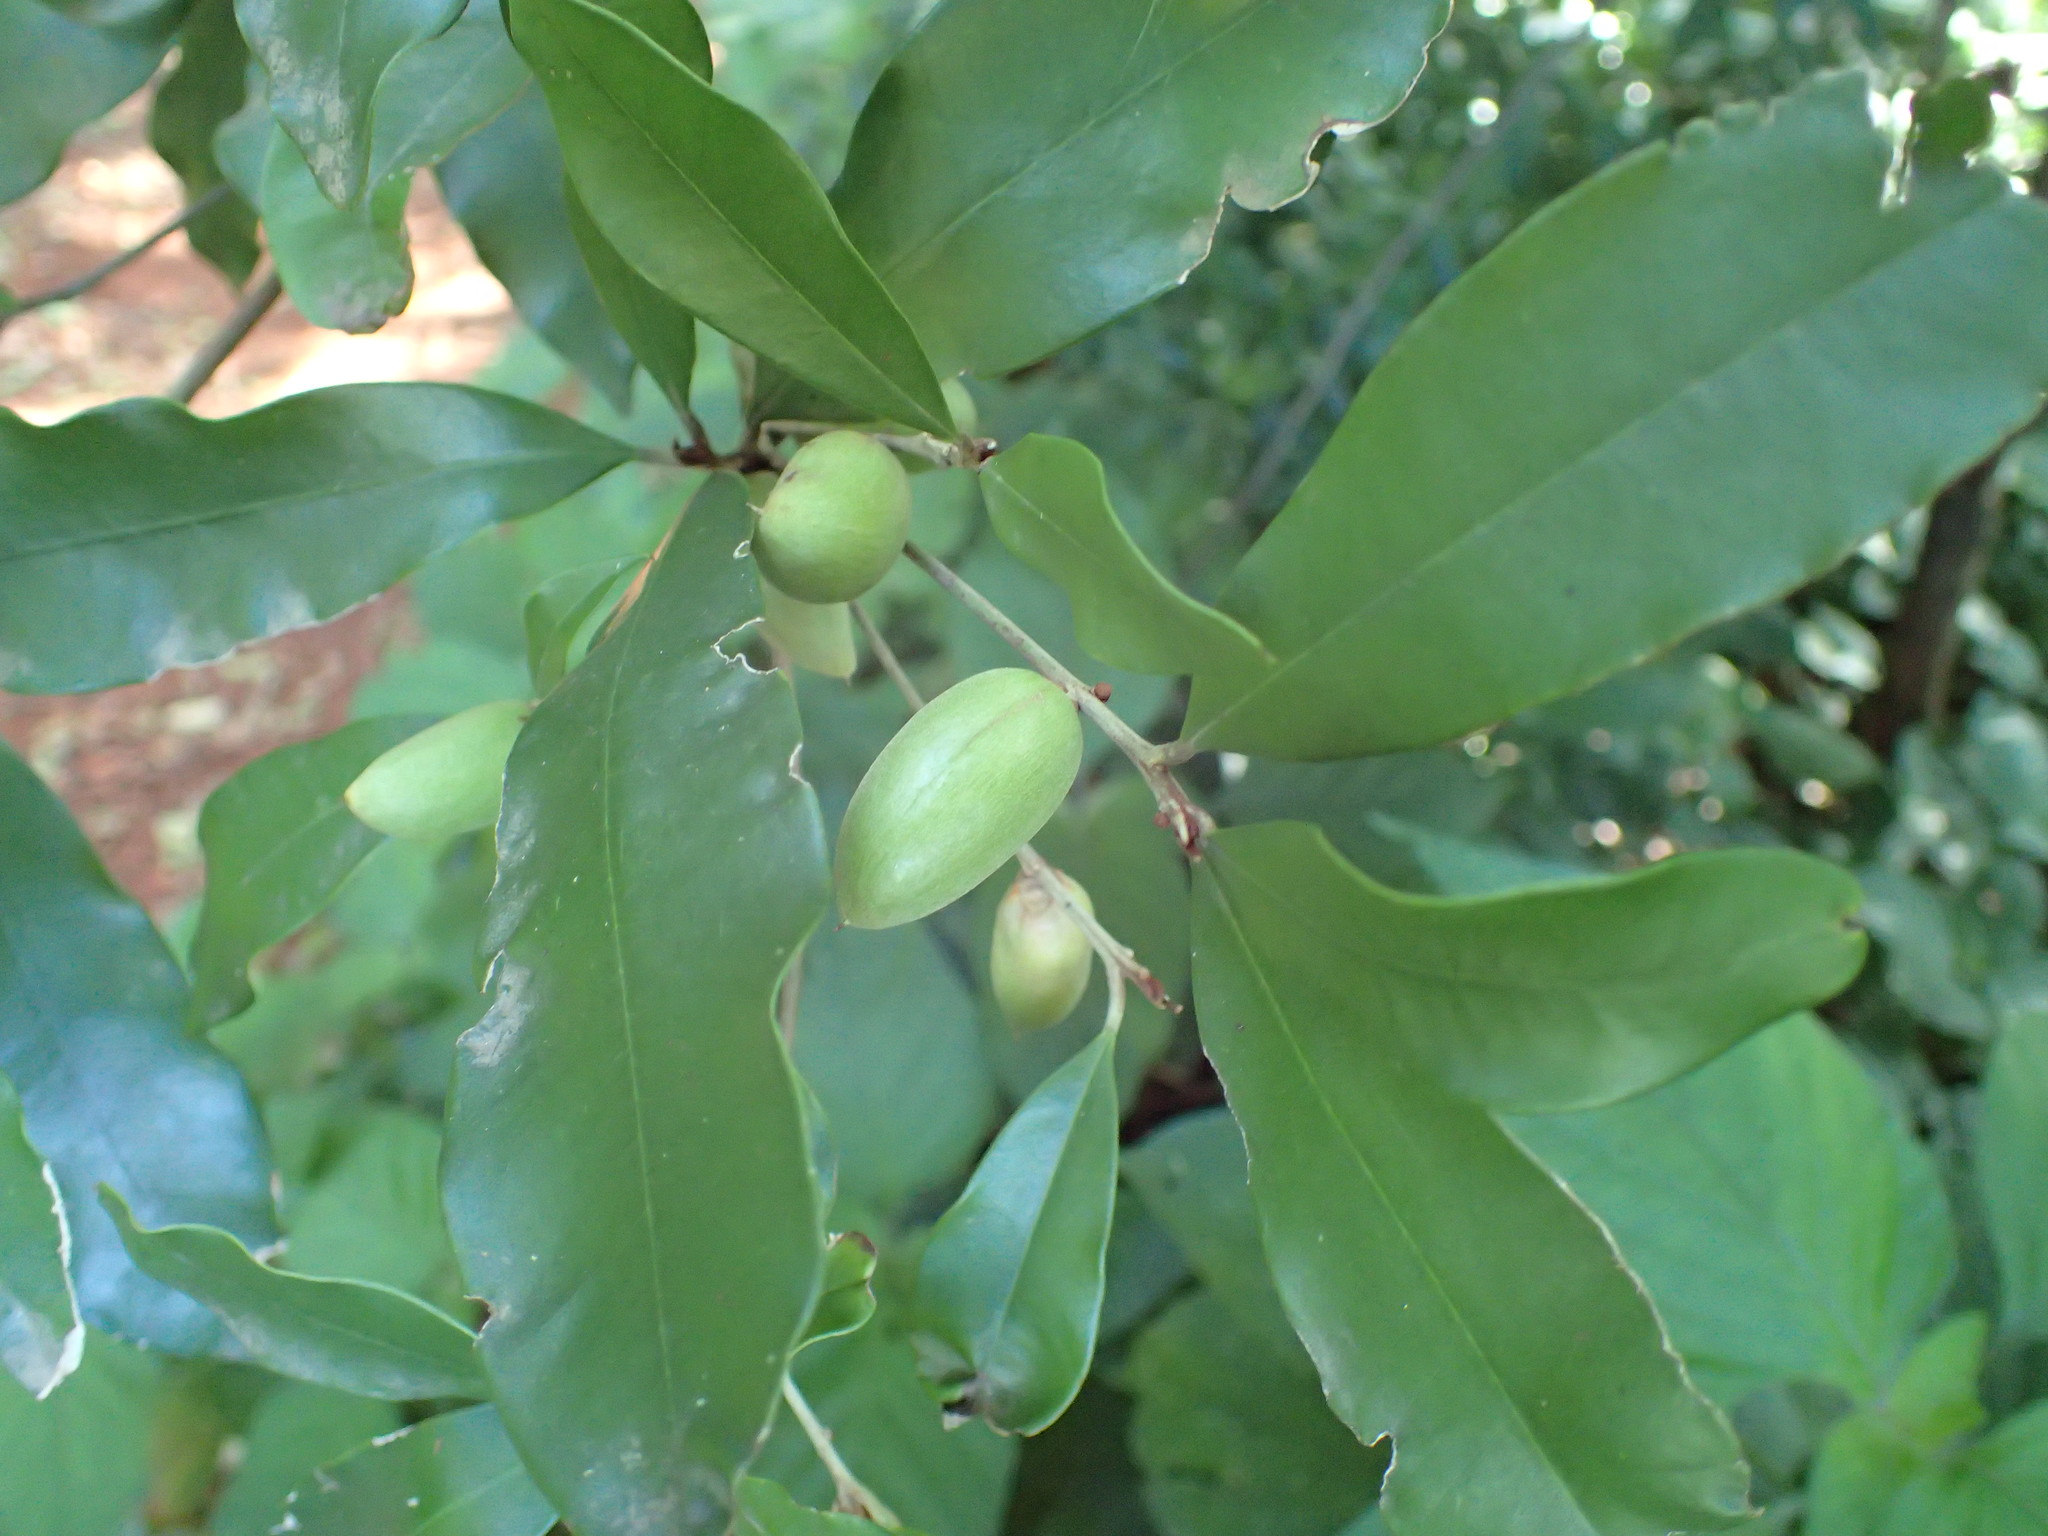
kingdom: Plantae
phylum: Tracheophyta
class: Magnoliopsida
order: Ericales
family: Sapotaceae
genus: Englerophytum
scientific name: Englerophytum natalense
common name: Silver-leaved milkplum
